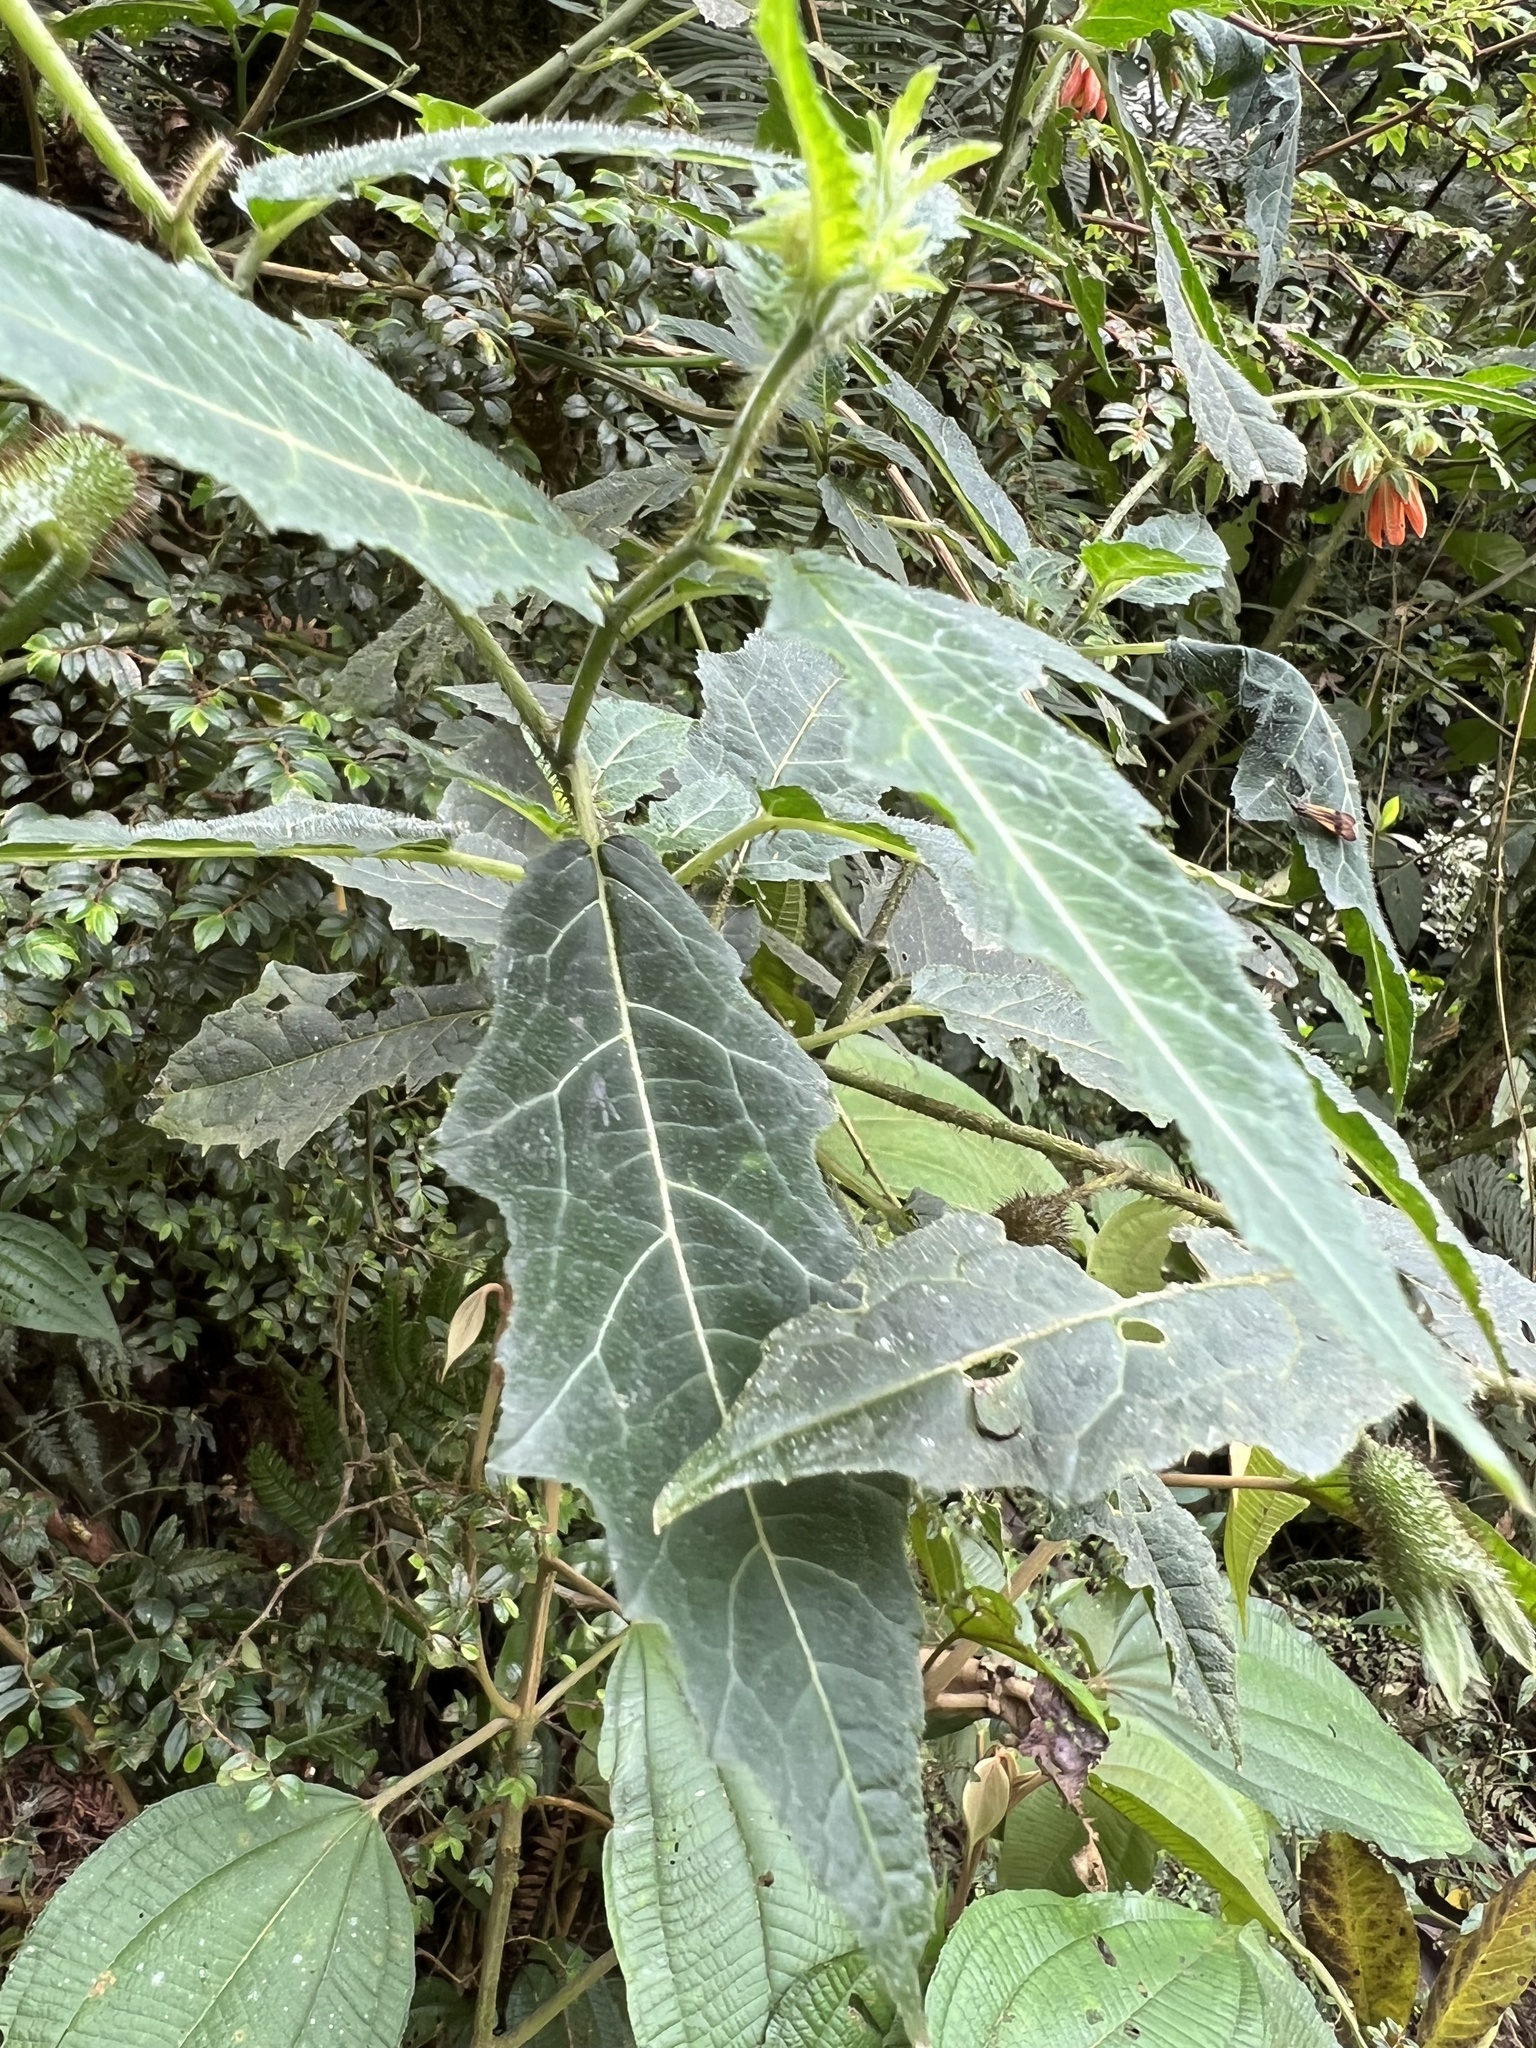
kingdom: Plantae
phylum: Tracheophyta
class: Magnoliopsida
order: Cornales
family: Loasaceae
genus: Nasa
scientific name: Nasa campaniflora
